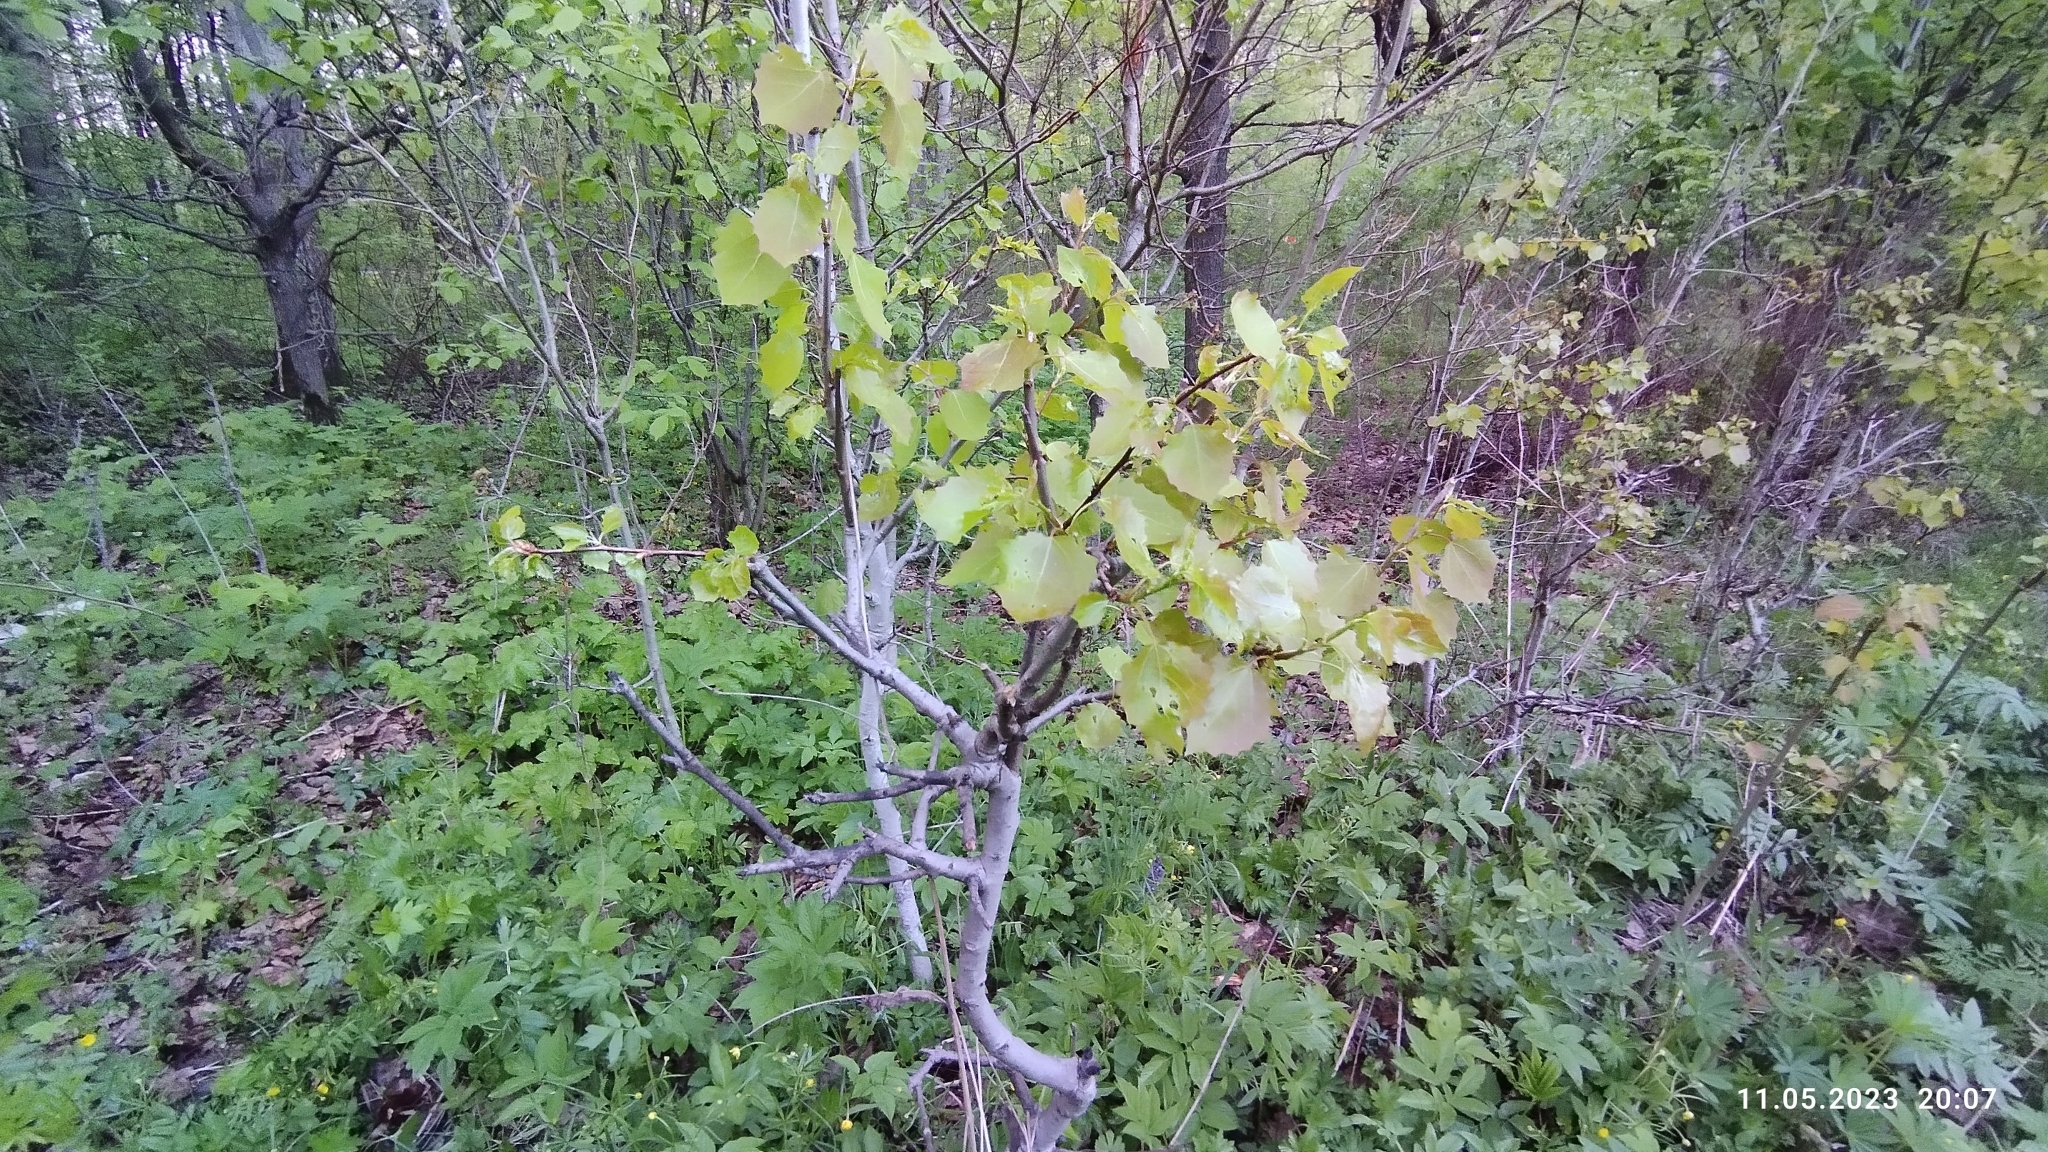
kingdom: Plantae
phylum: Tracheophyta
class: Magnoliopsida
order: Malpighiales
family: Salicaceae
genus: Populus
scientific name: Populus tremula
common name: European aspen
